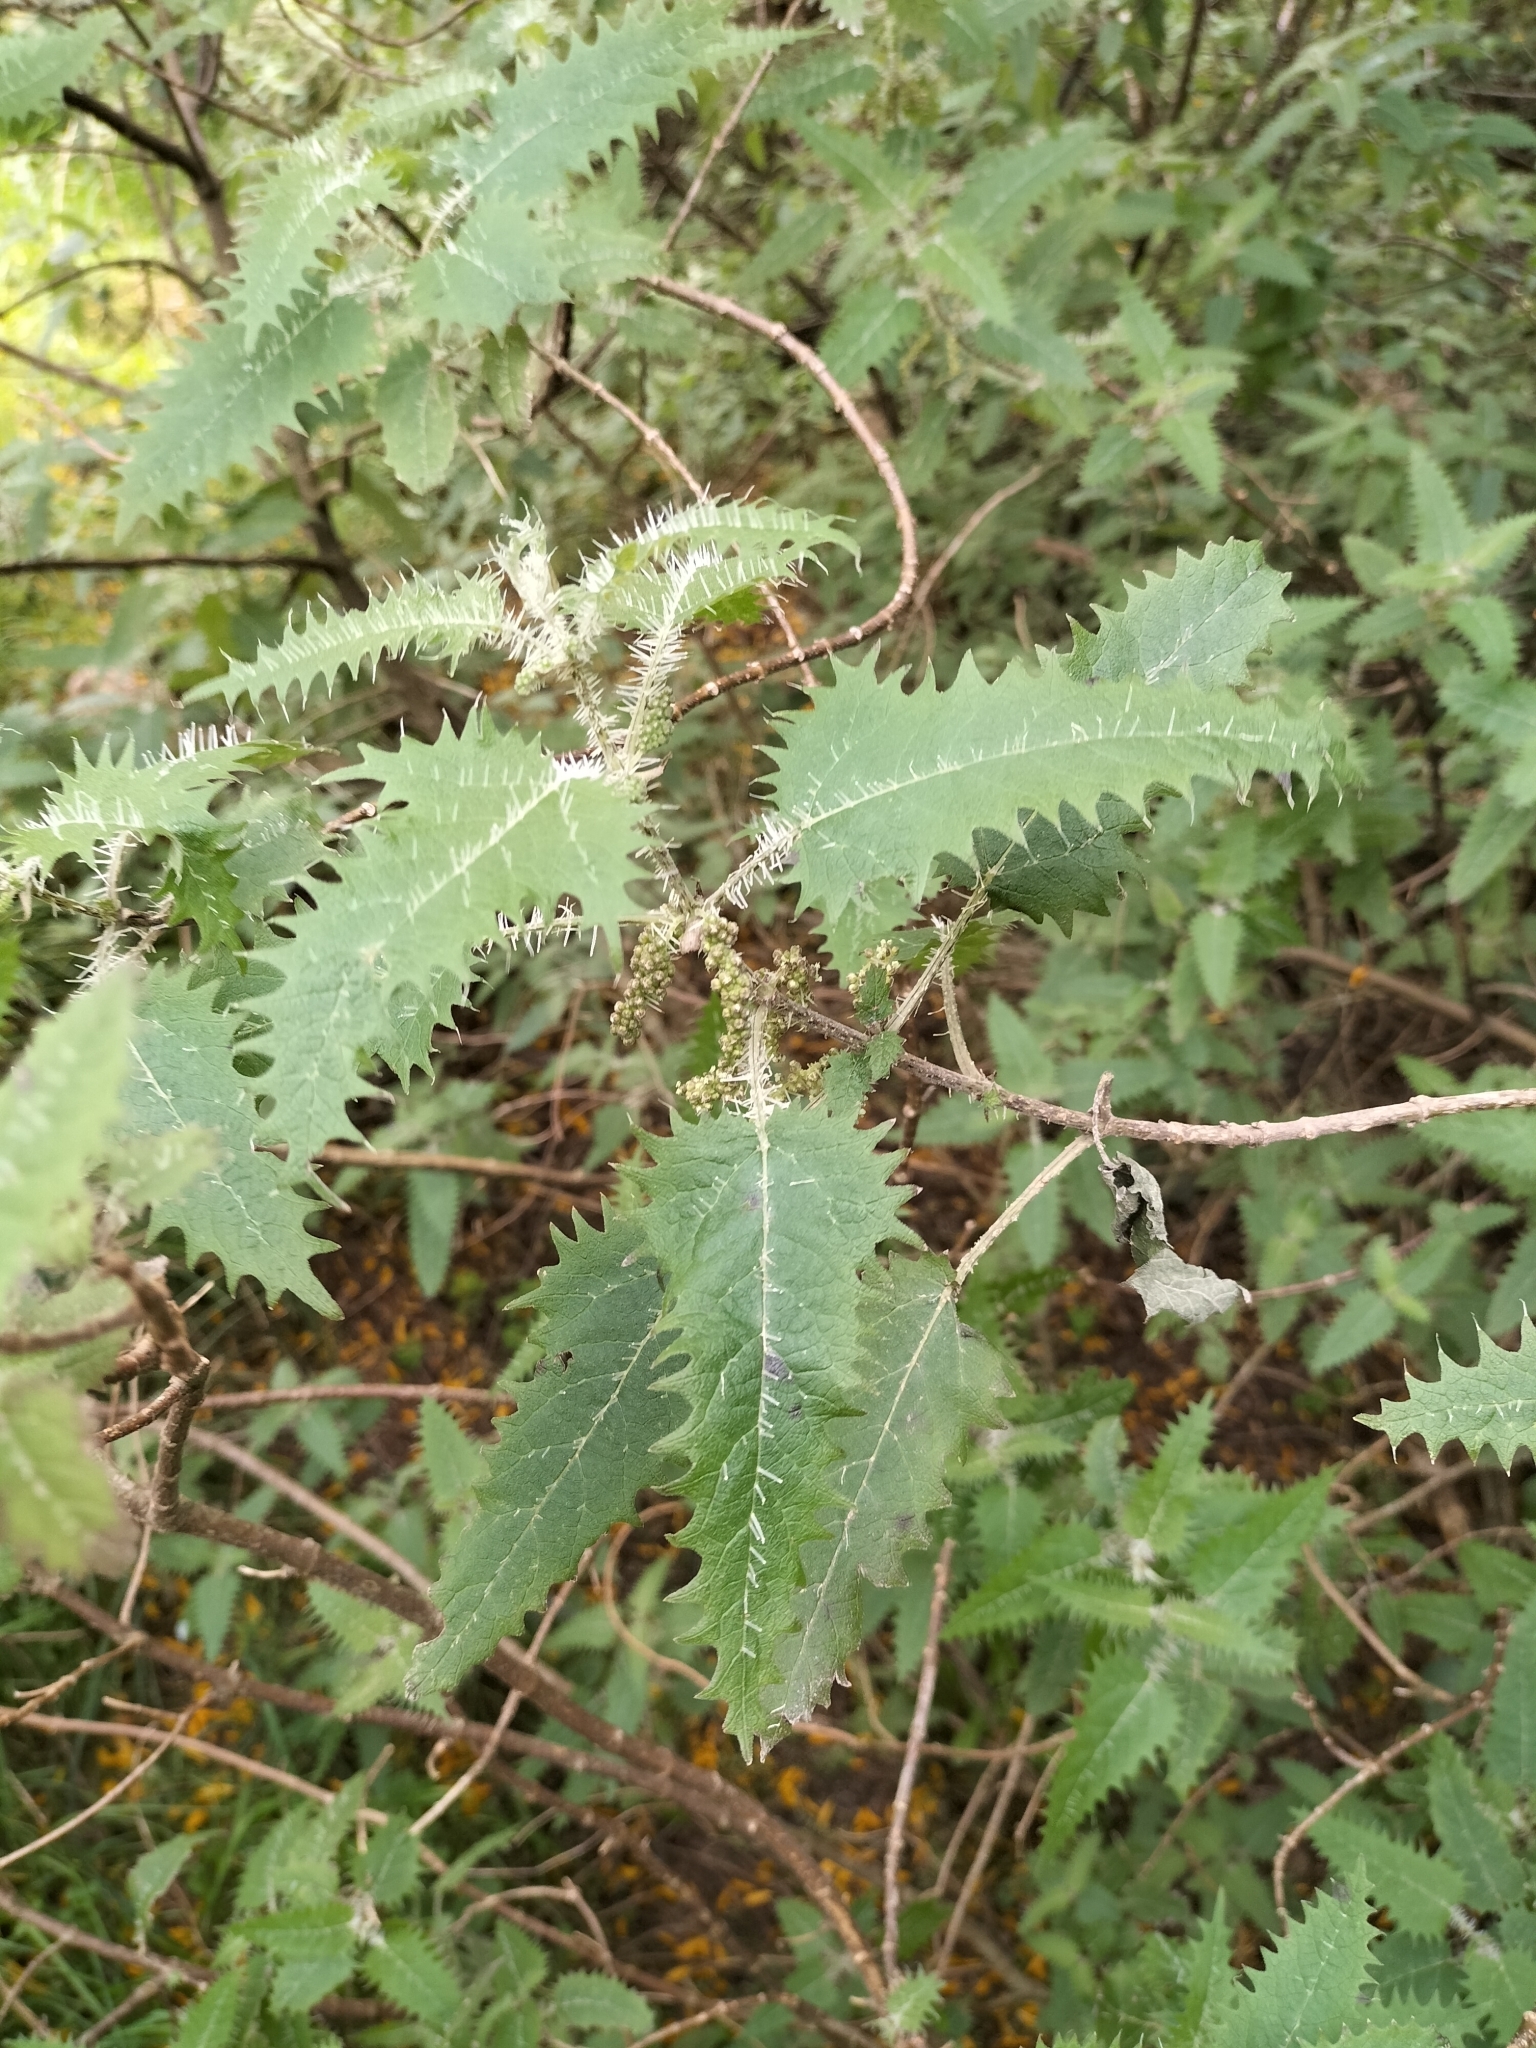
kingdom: Plantae
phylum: Tracheophyta
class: Magnoliopsida
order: Rosales
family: Urticaceae
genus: Urtica
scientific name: Urtica ferox
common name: Tree nettle
